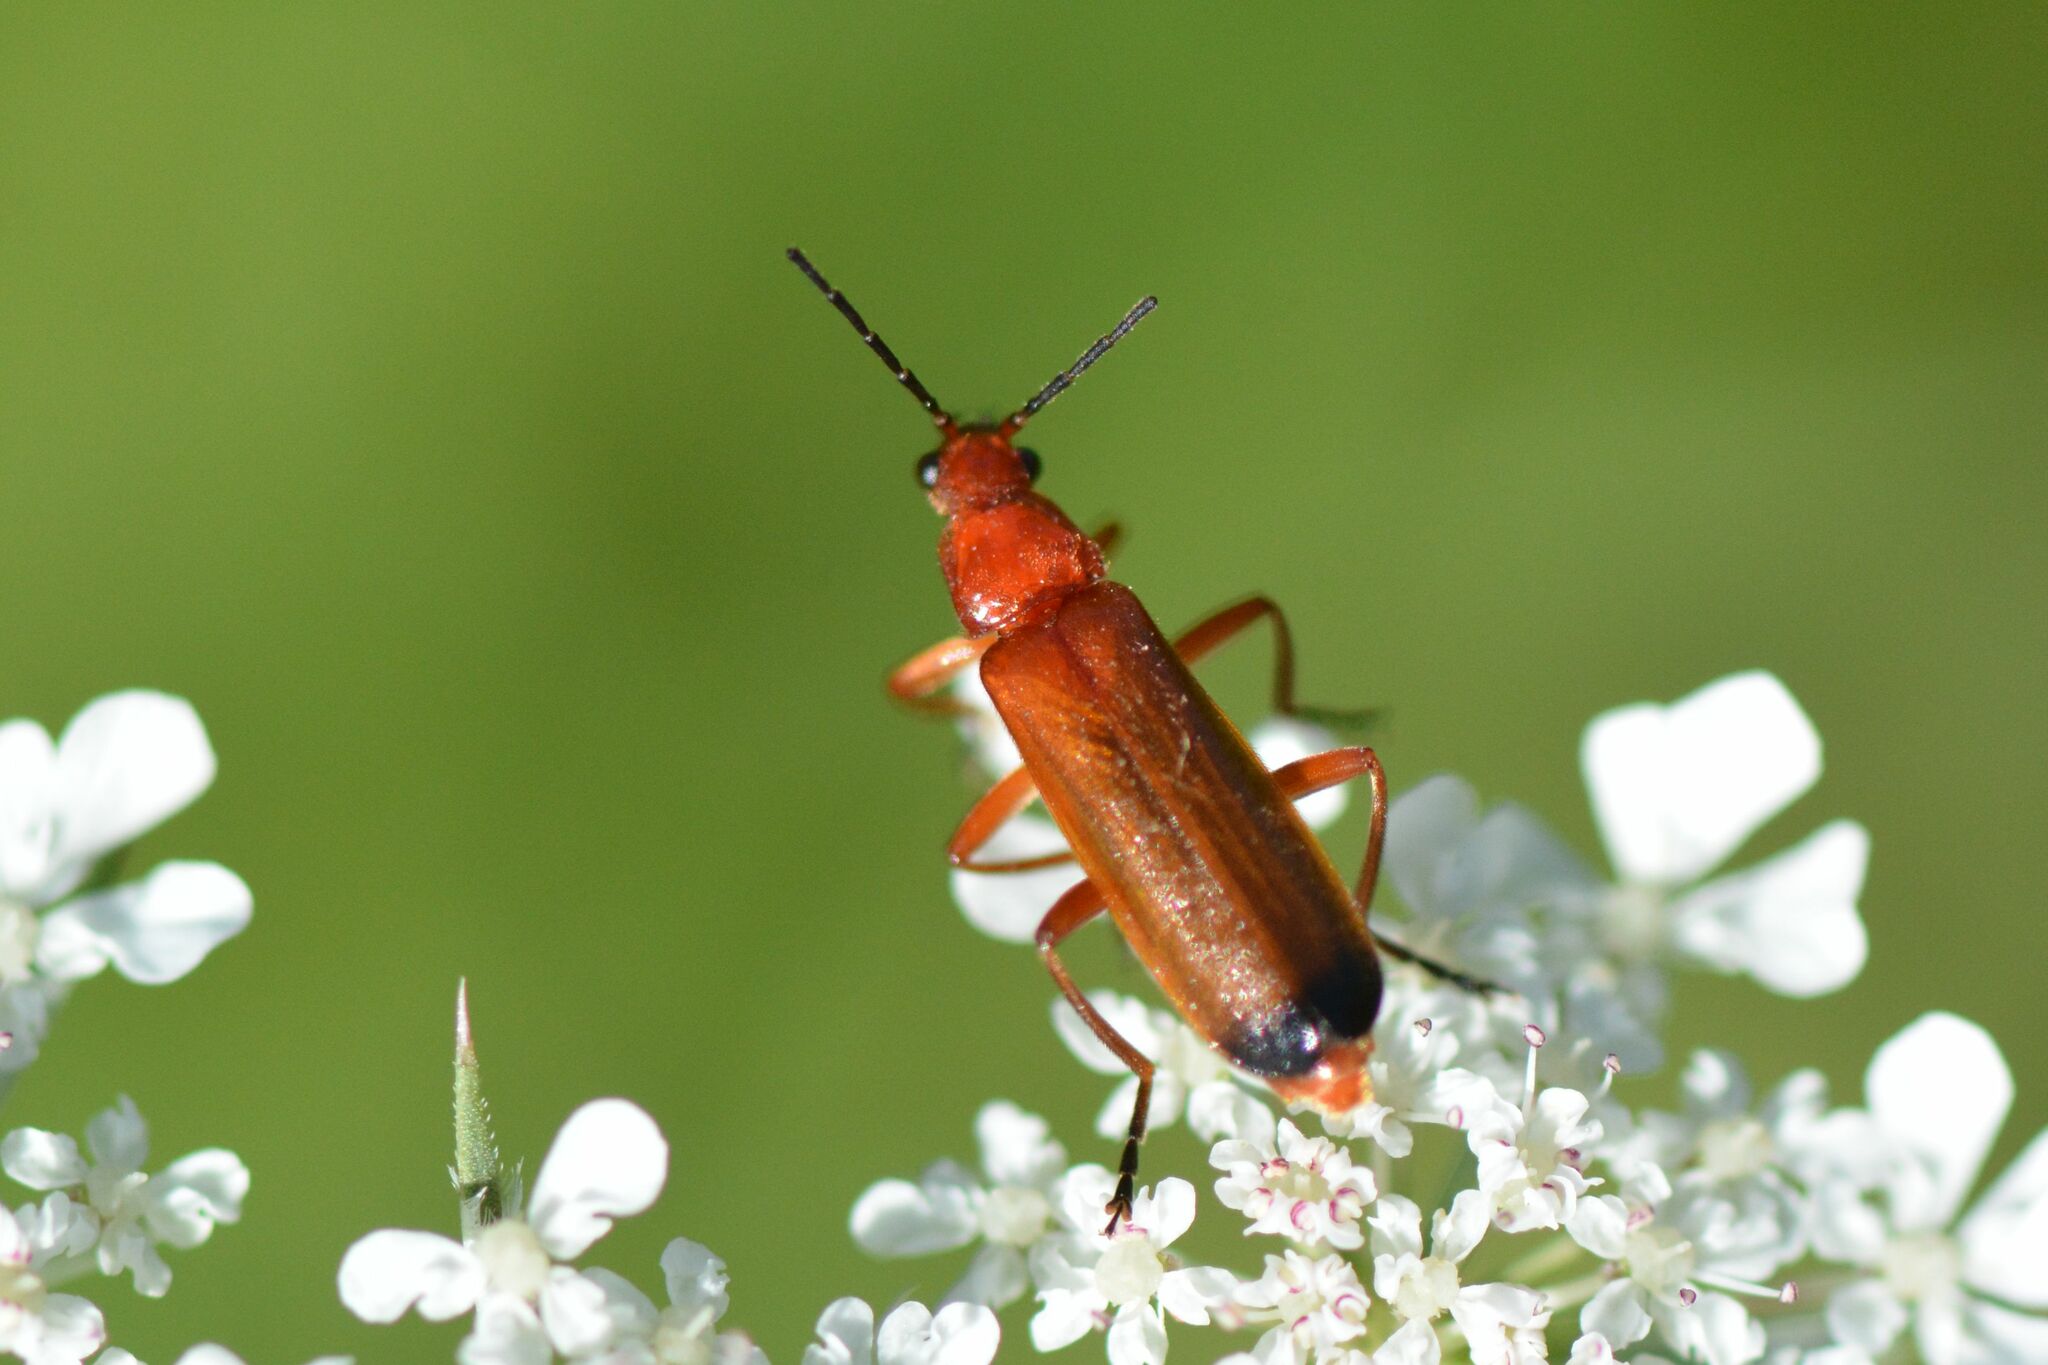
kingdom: Animalia
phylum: Arthropoda
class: Insecta
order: Coleoptera
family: Cantharidae
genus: Rhagonycha
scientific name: Rhagonycha fulva
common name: Common red soldier beetle
